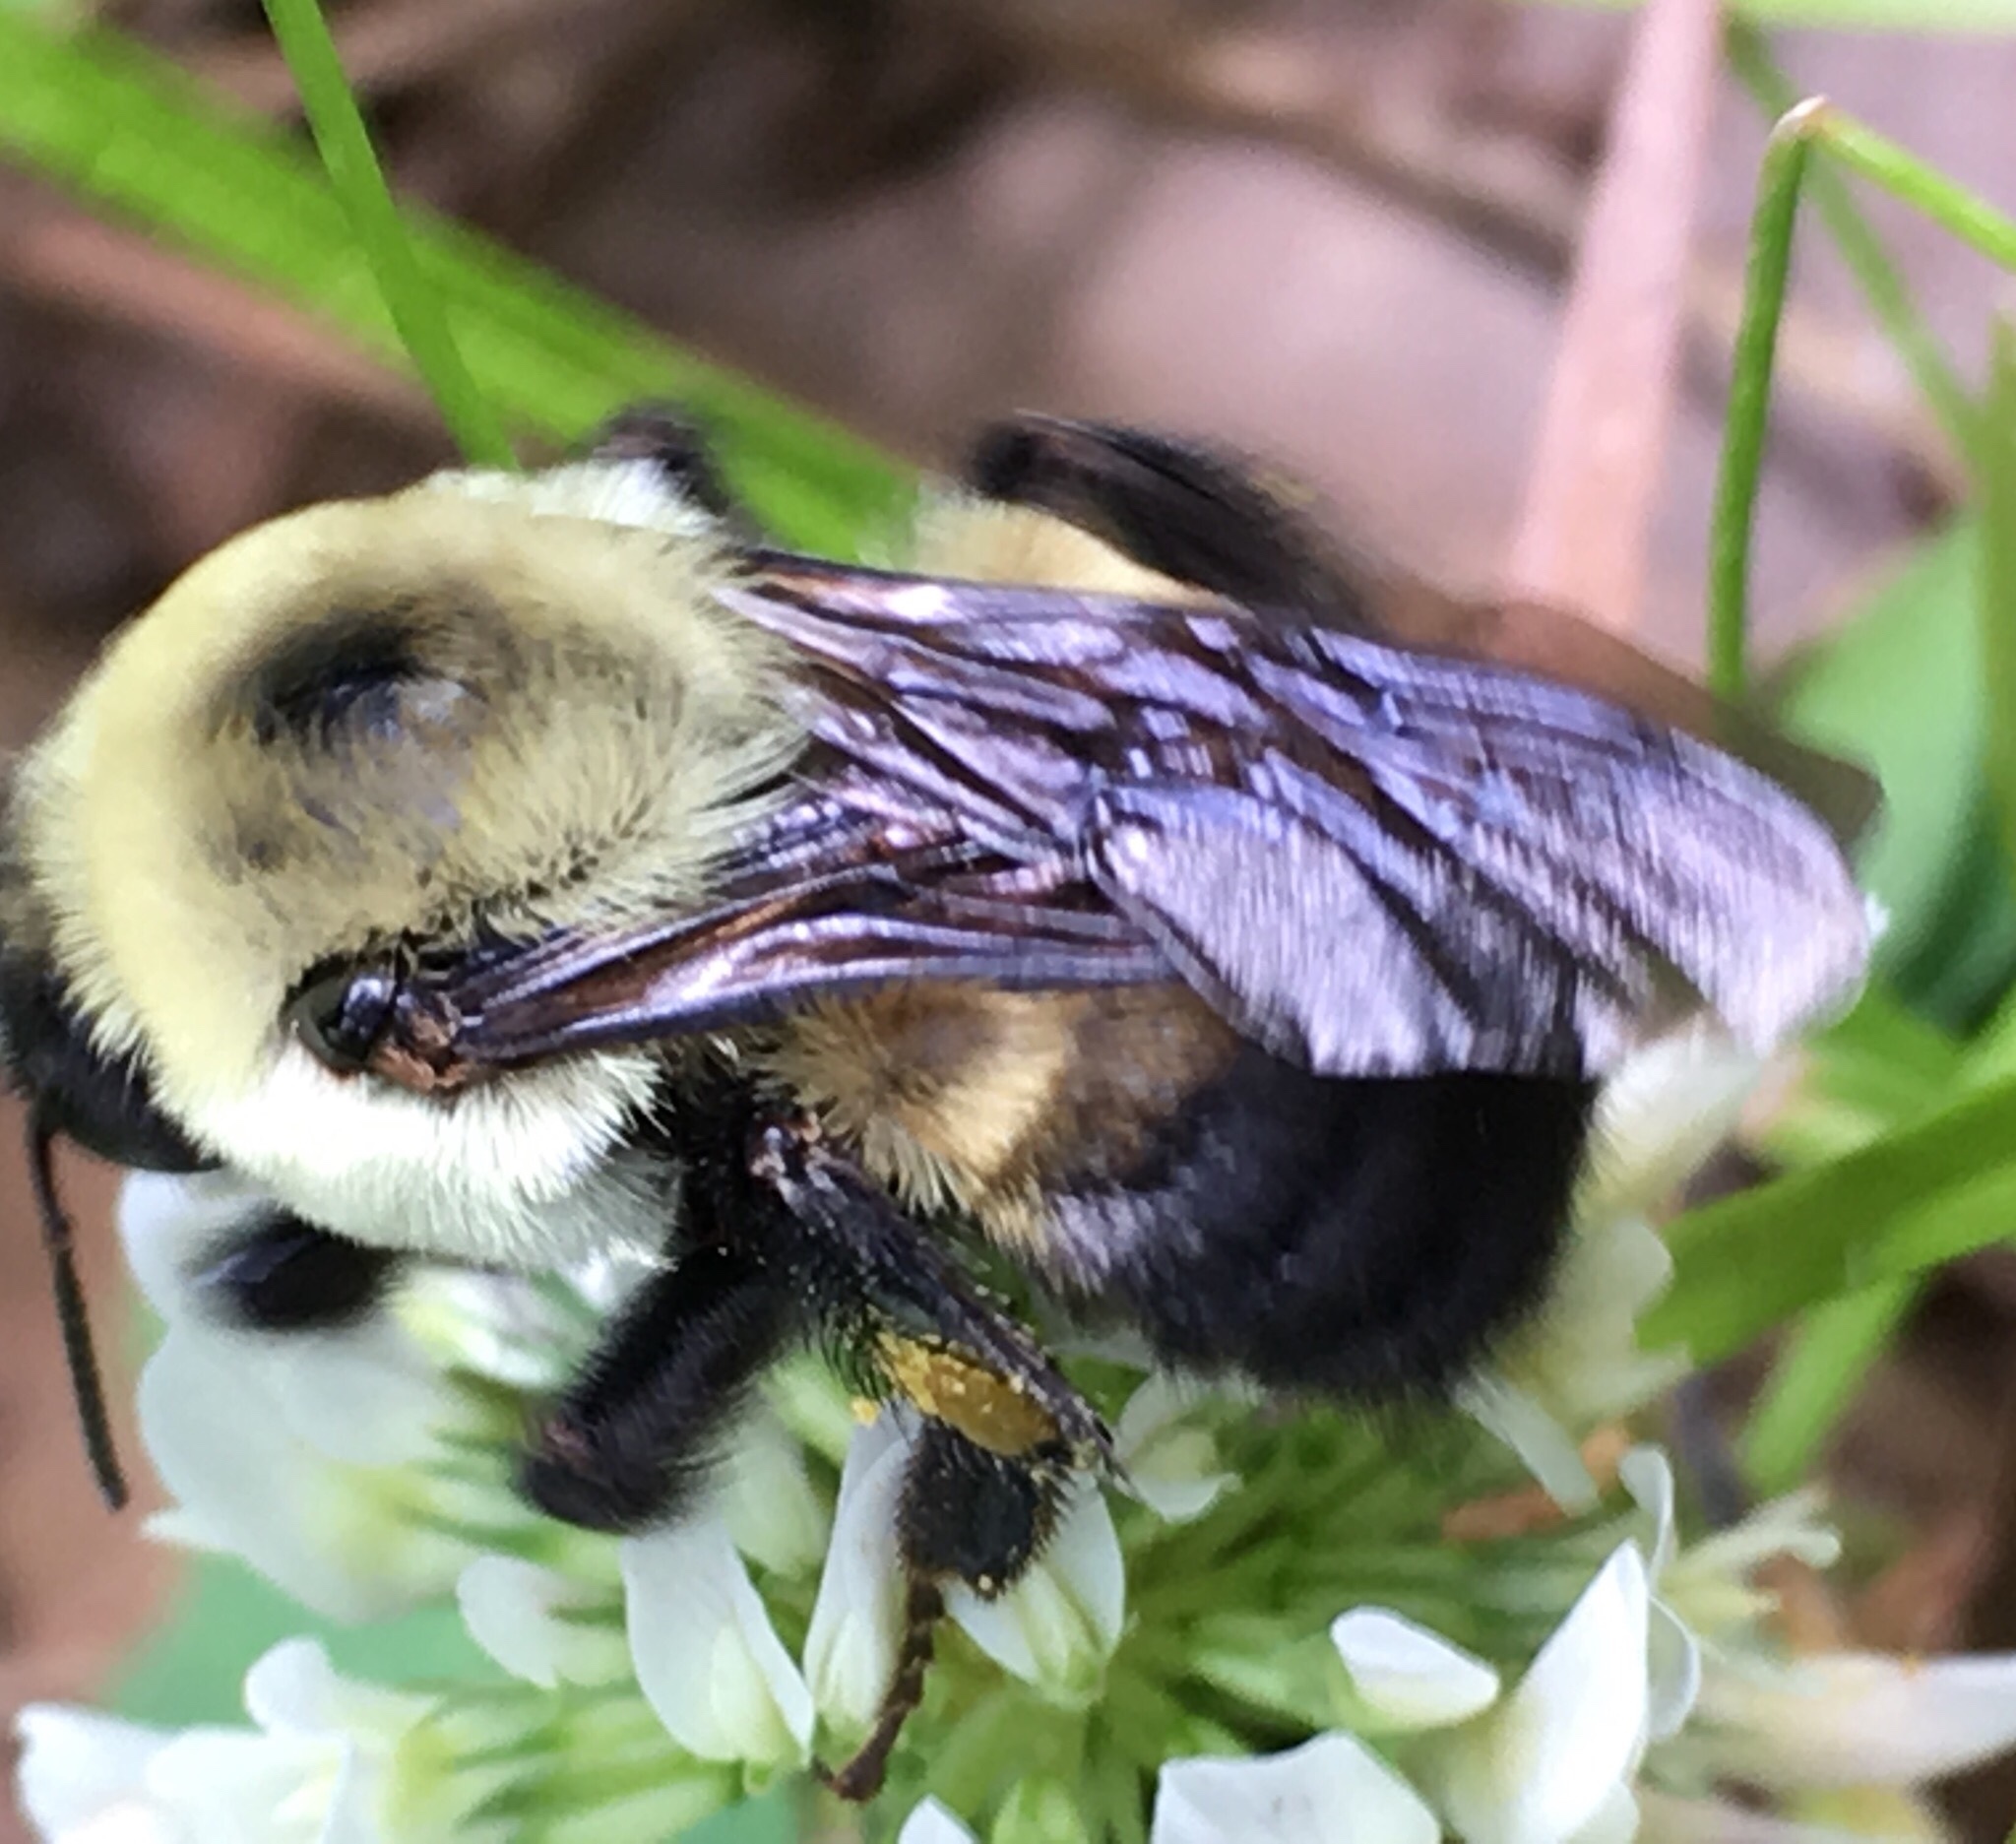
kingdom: Animalia
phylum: Arthropoda
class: Insecta
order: Hymenoptera
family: Apidae
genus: Bombus
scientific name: Bombus griseocollis
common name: Brown-belted bumble bee
